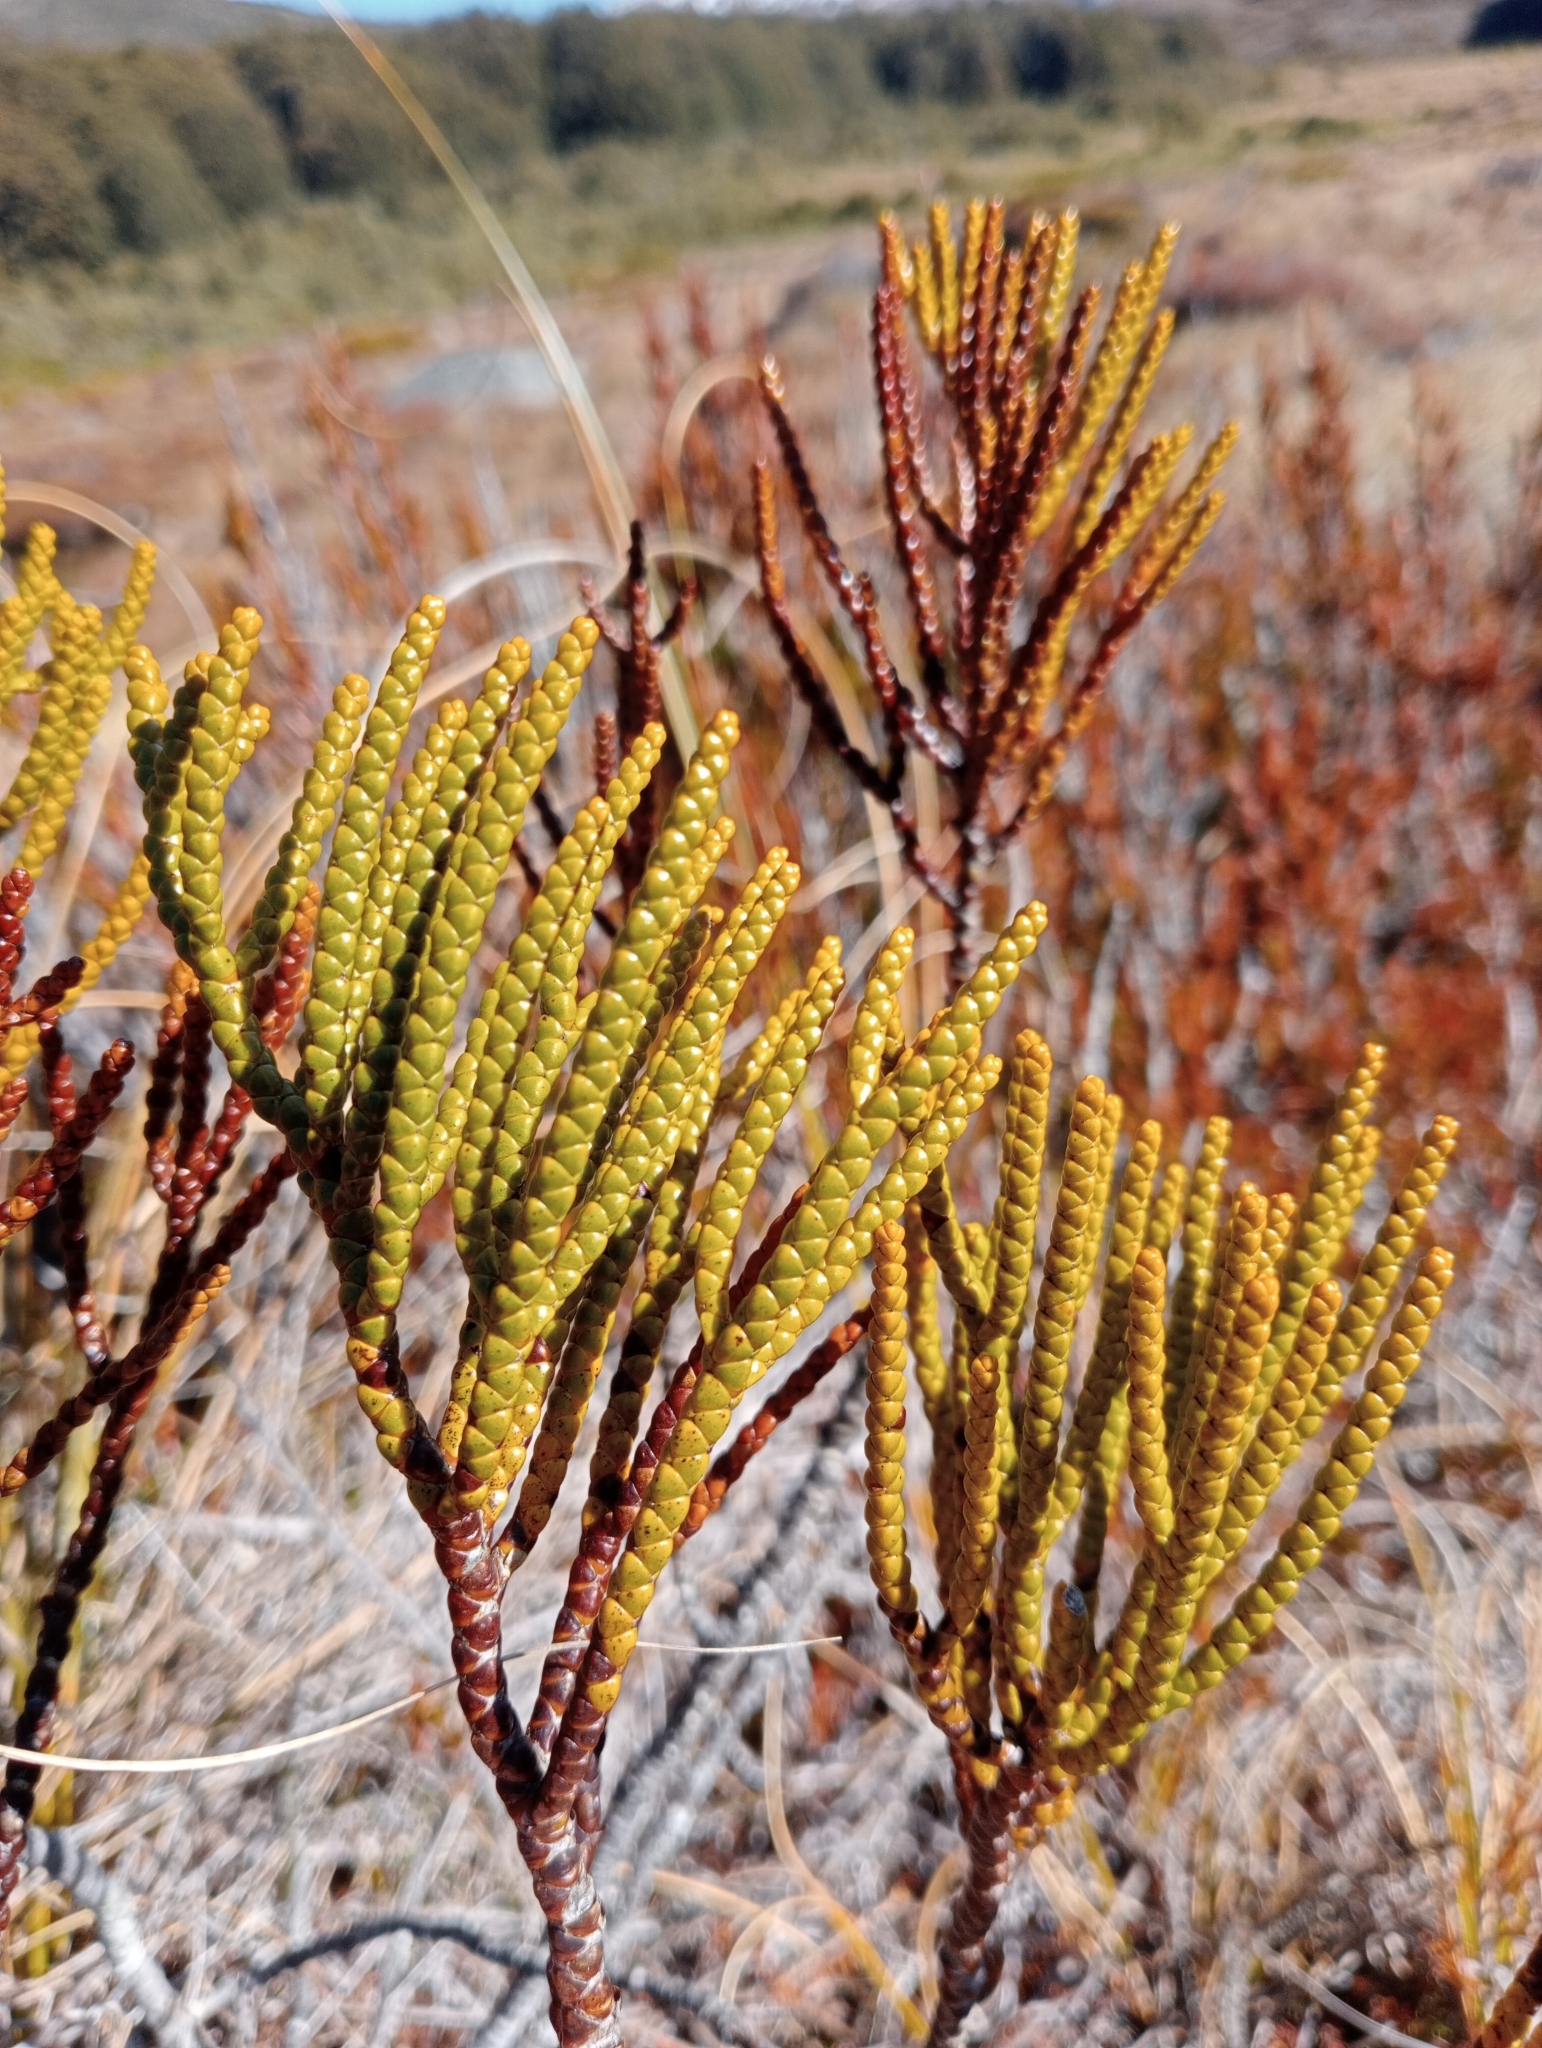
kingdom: Plantae
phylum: Tracheophyta
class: Magnoliopsida
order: Lamiales
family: Plantaginaceae
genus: Veronica
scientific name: Veronica hectorii
